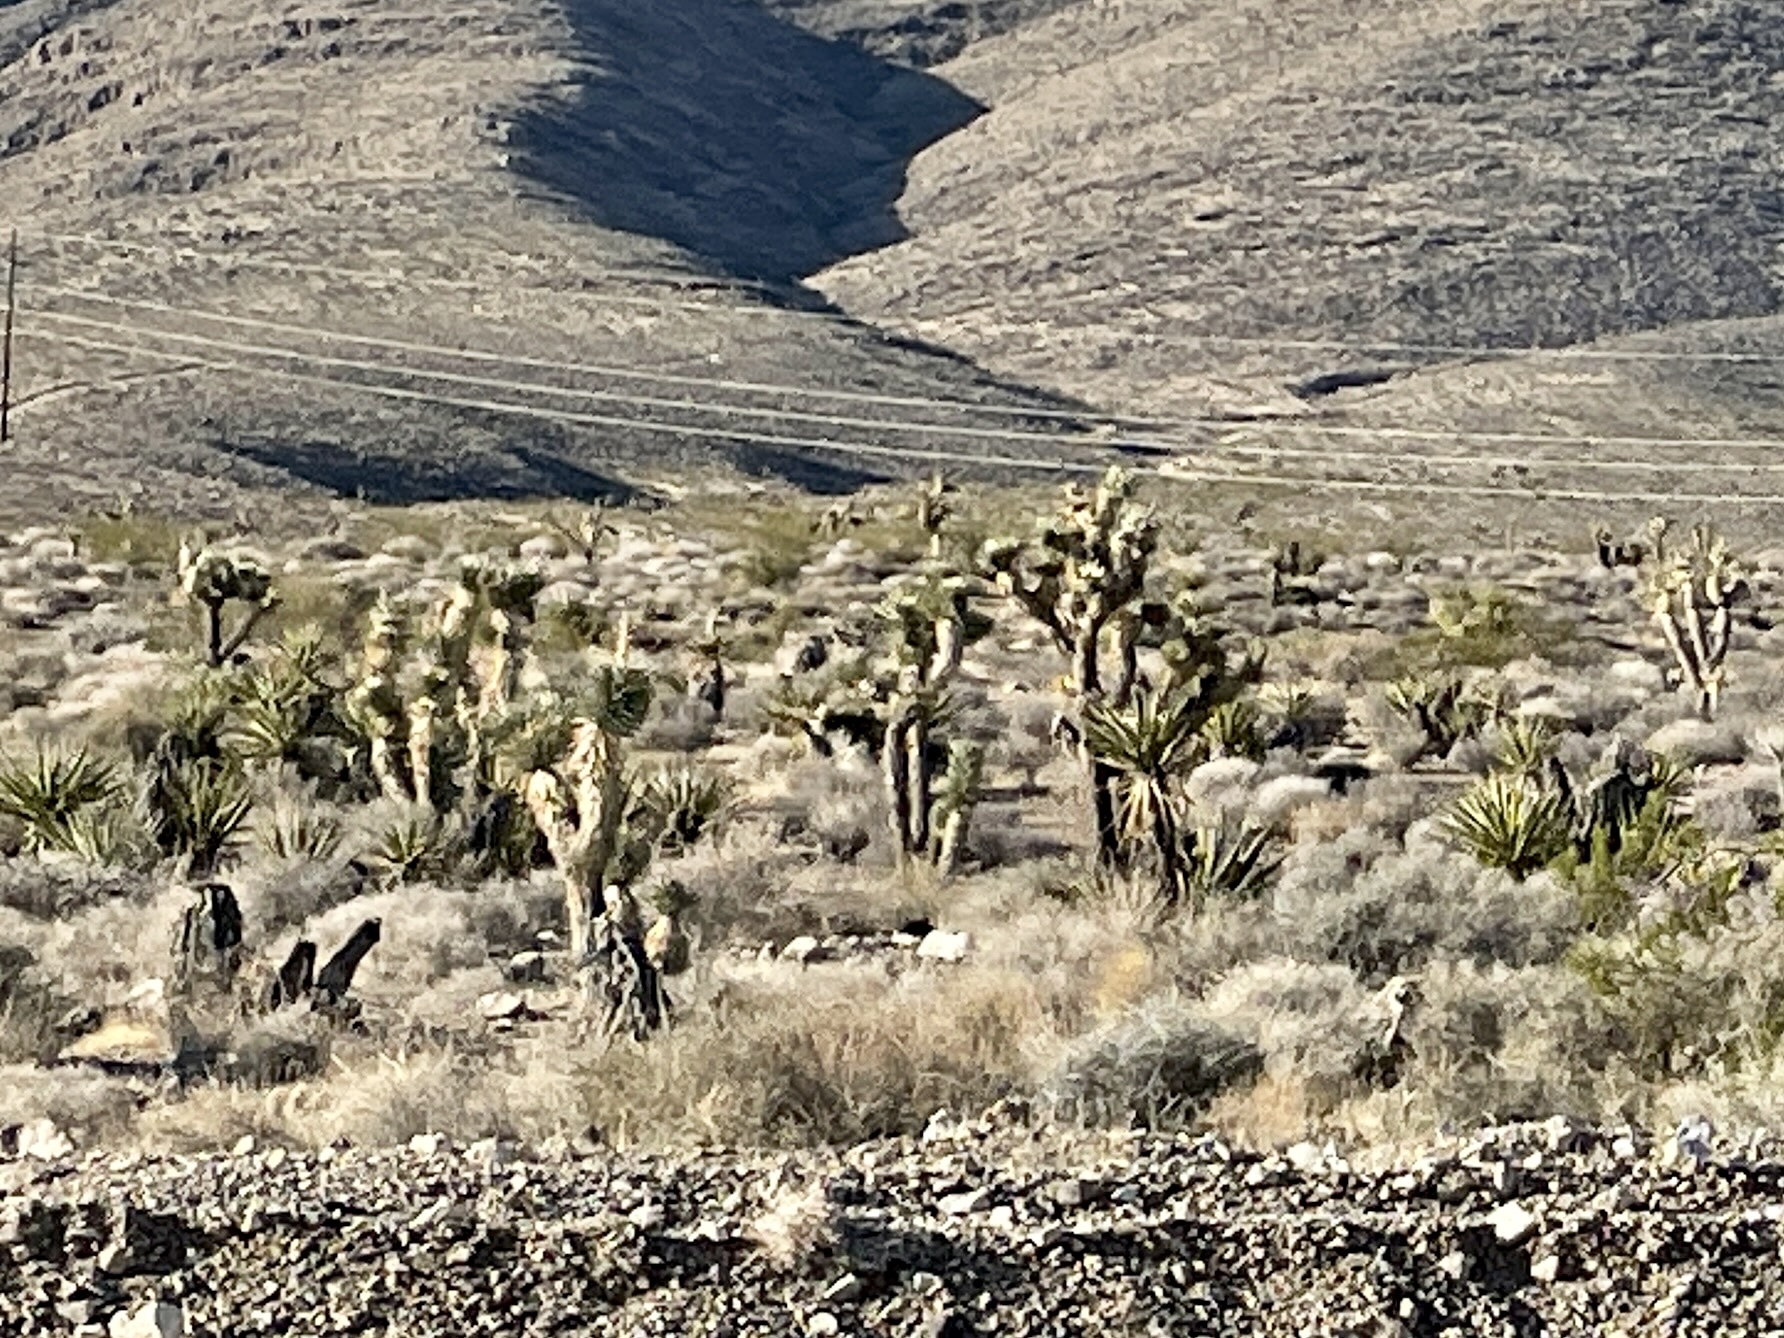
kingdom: Plantae
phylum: Tracheophyta
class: Liliopsida
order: Asparagales
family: Asparagaceae
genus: Yucca
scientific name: Yucca brevifolia
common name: Joshua tree
